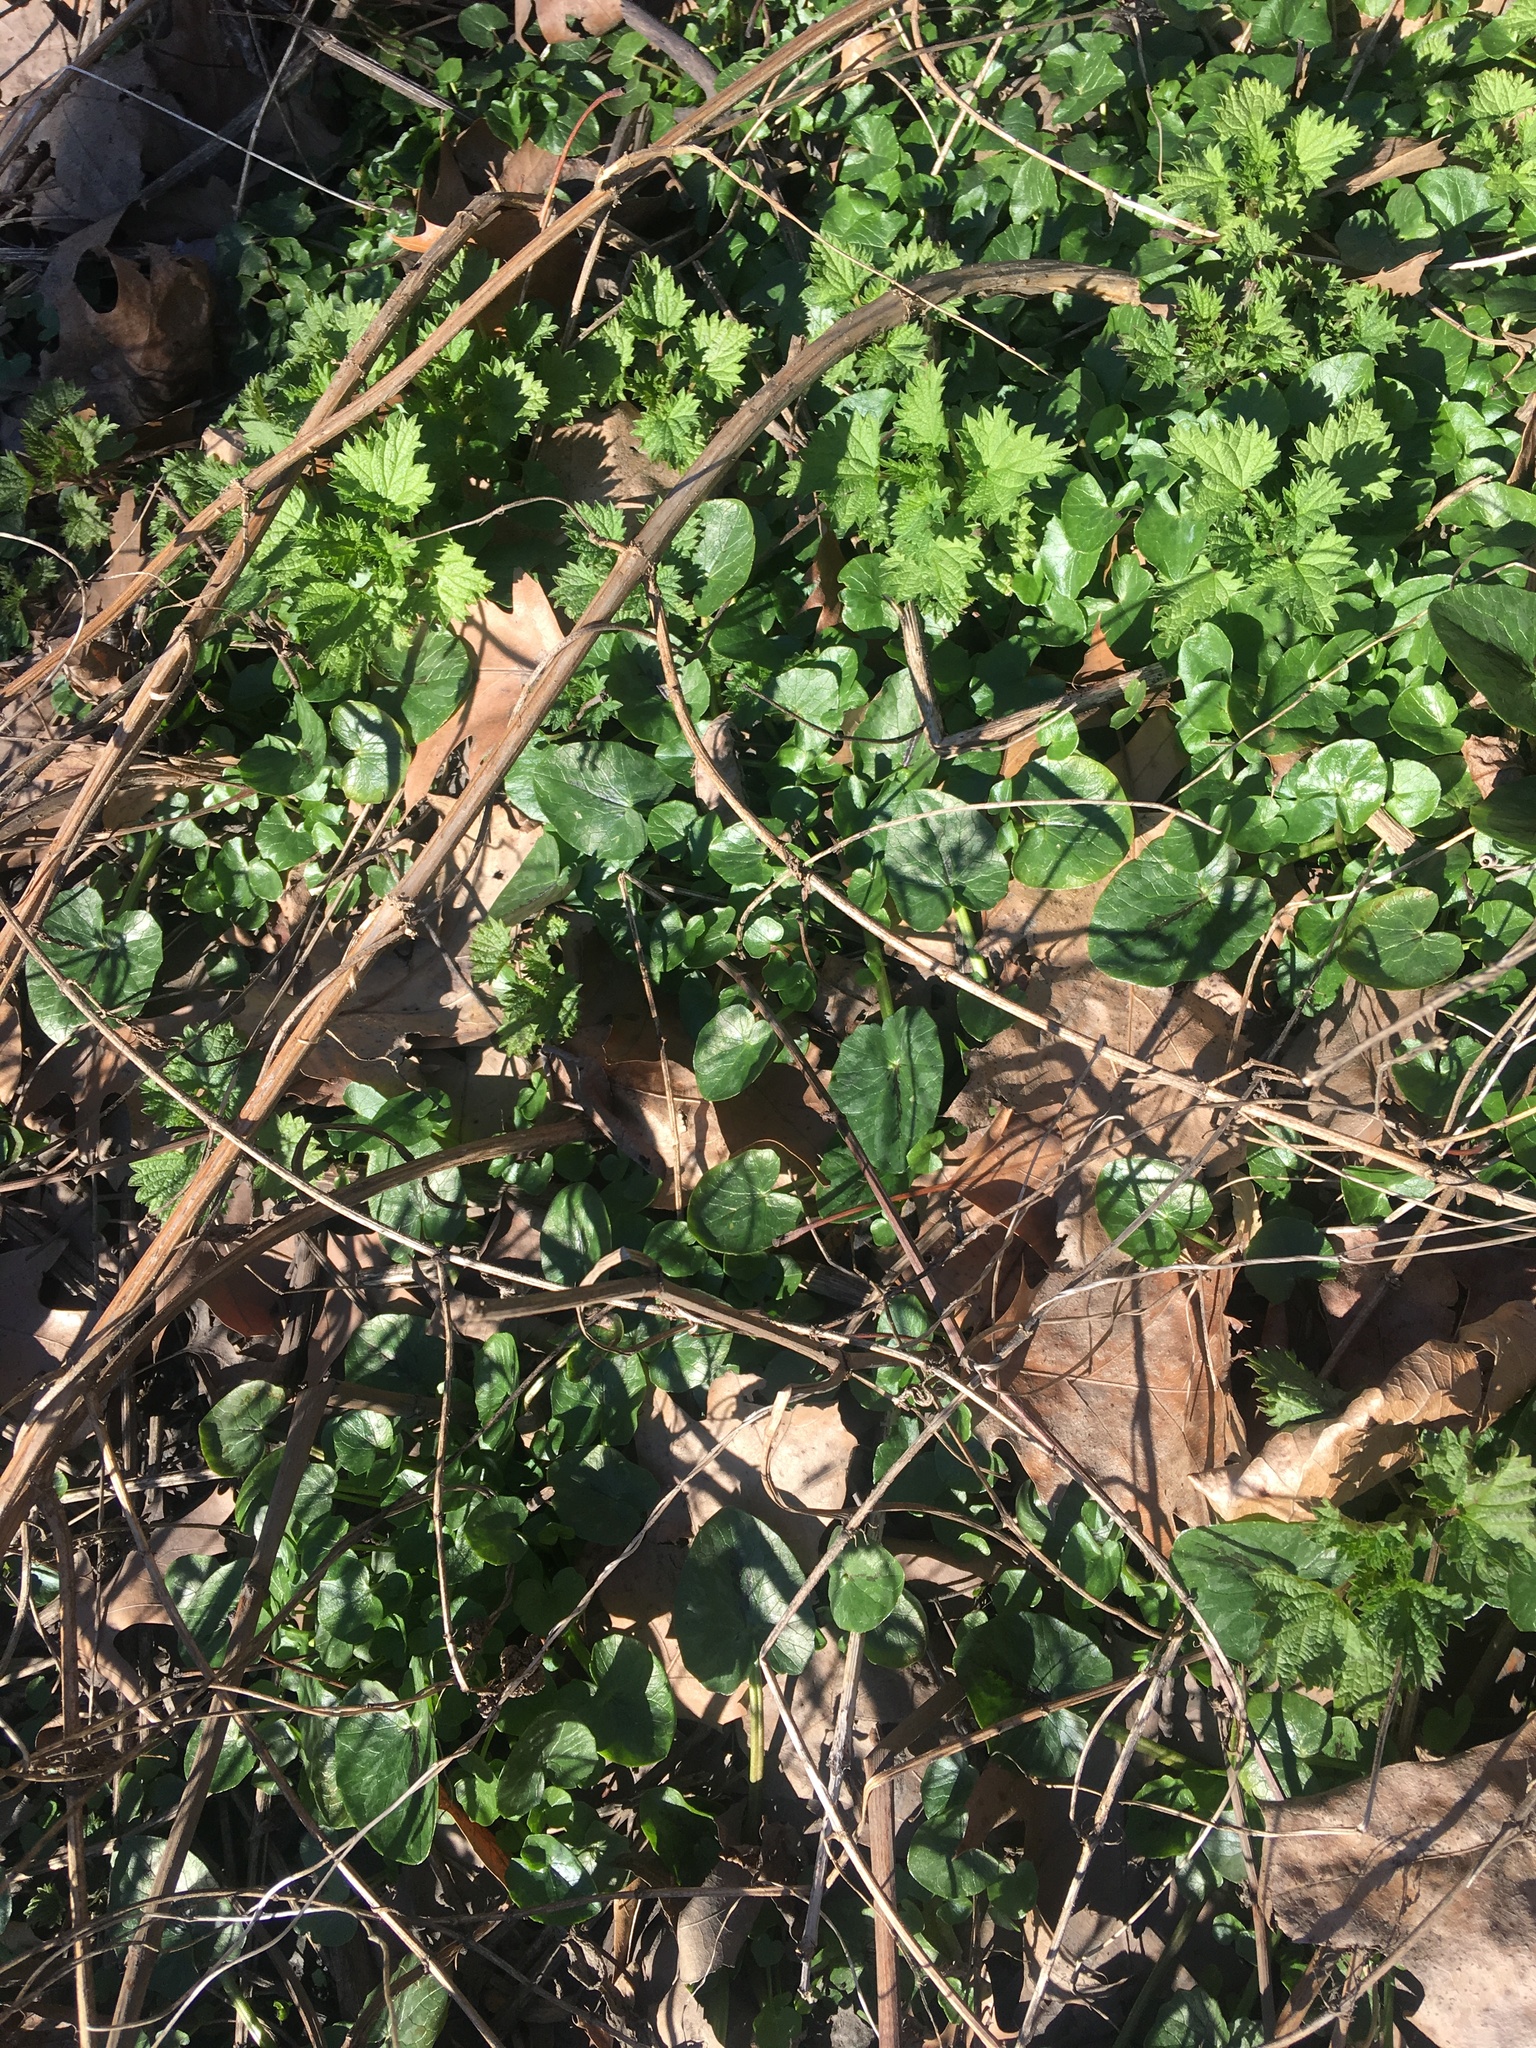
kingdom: Plantae
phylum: Tracheophyta
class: Magnoliopsida
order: Ranunculales
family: Ranunculaceae
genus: Ficaria
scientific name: Ficaria verna
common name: Lesser celandine
